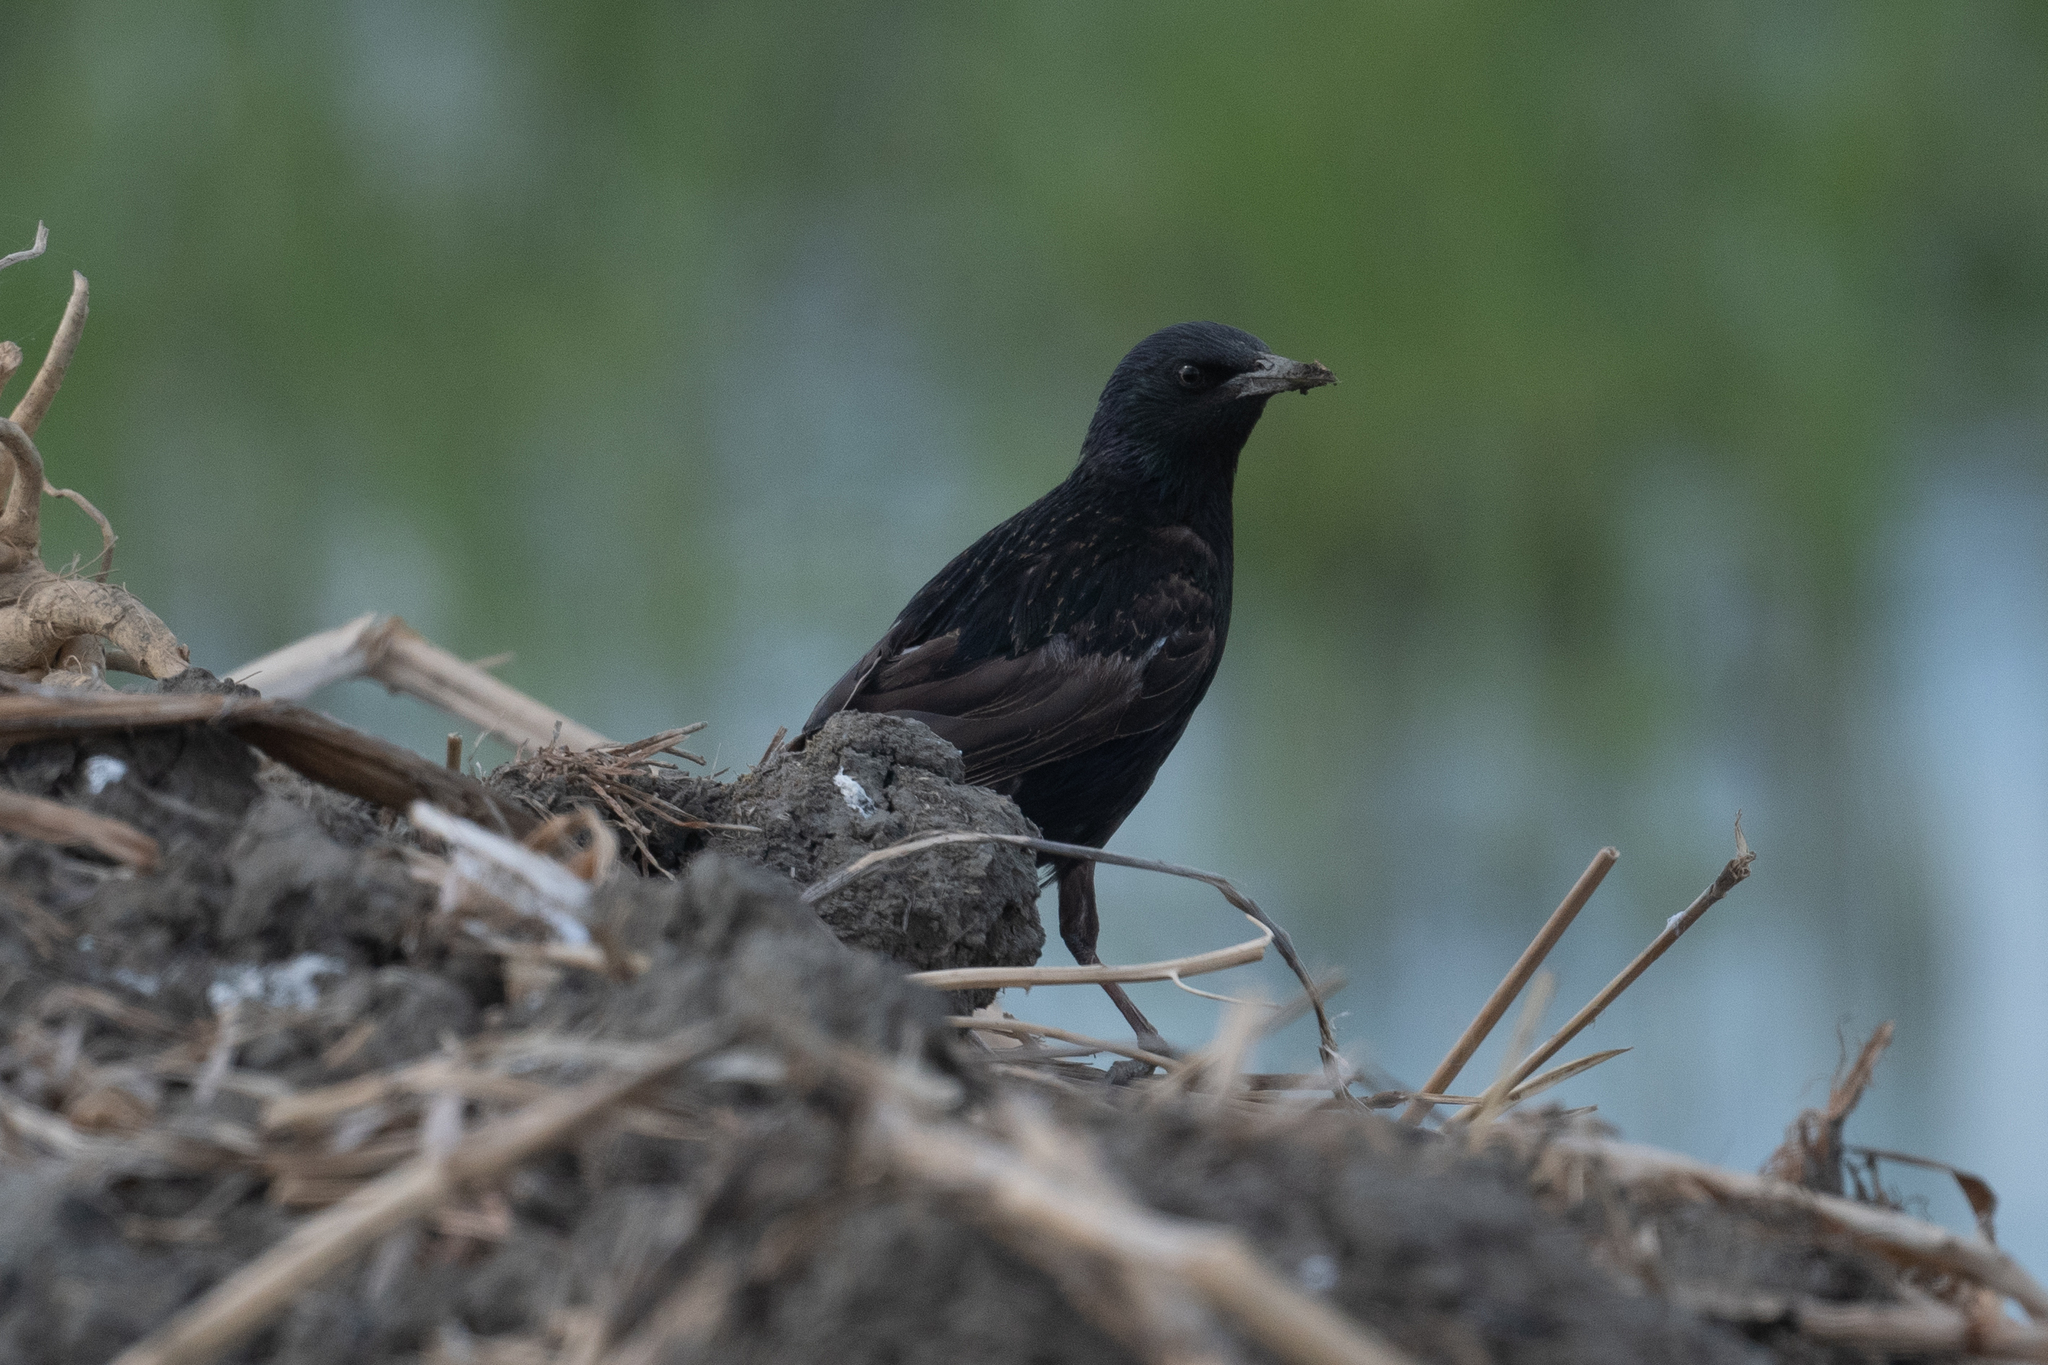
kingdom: Animalia
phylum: Chordata
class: Aves
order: Passeriformes
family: Sturnidae
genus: Sturnus
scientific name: Sturnus vulgaris
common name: Common starling
